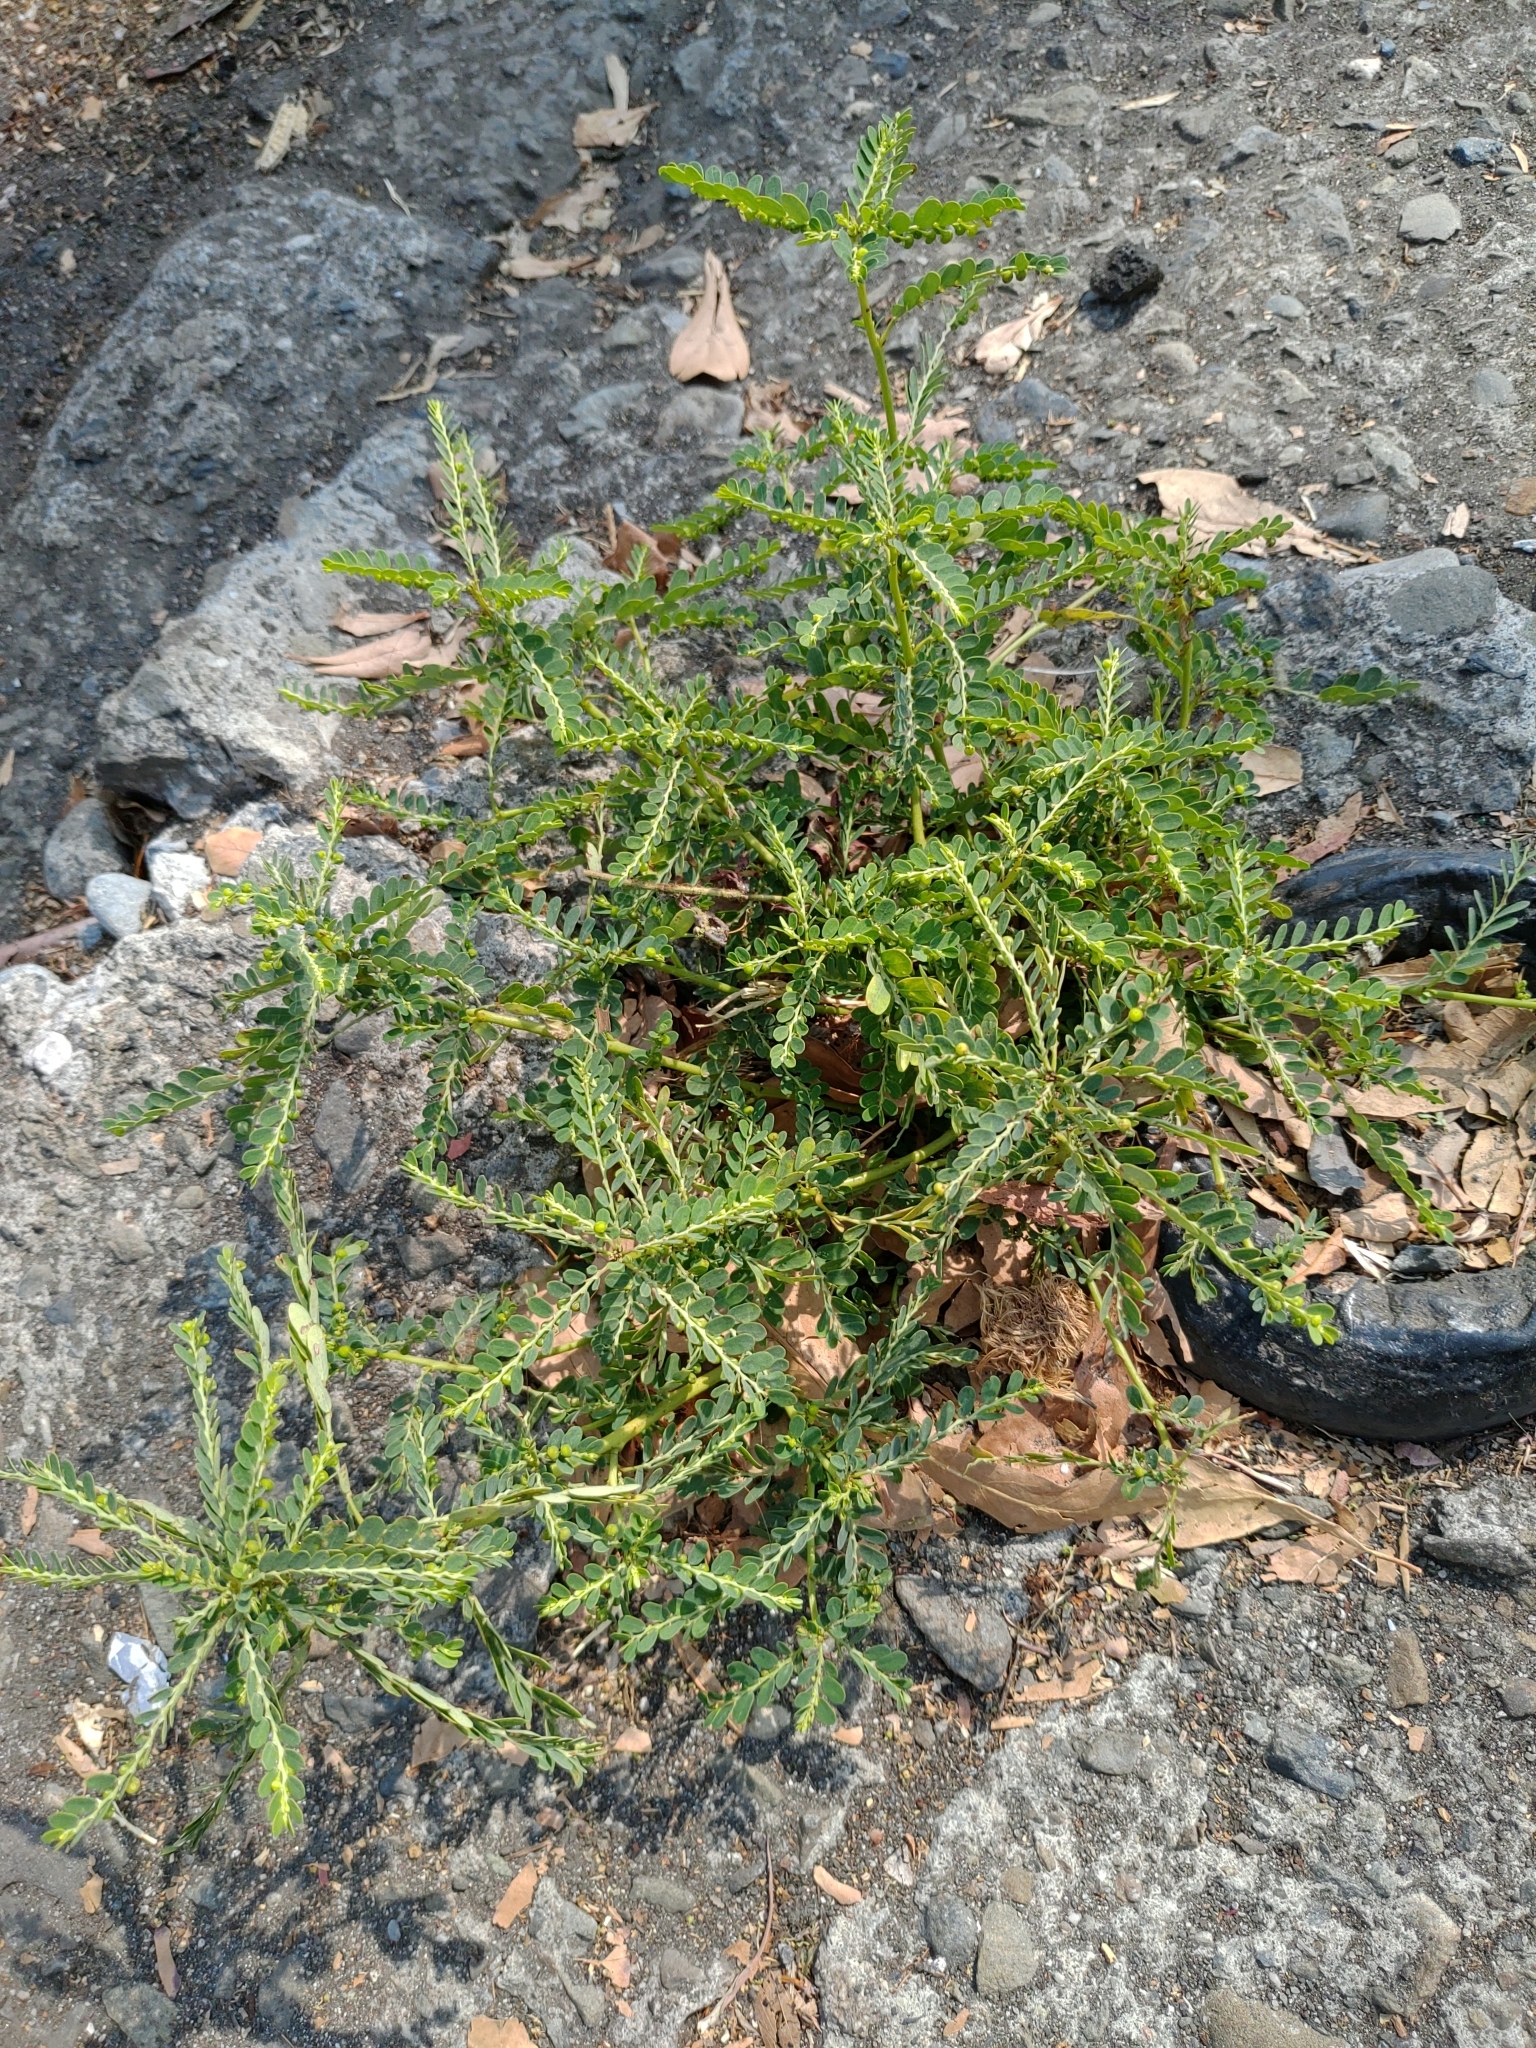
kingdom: Plantae
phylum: Tracheophyta
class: Magnoliopsida
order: Malpighiales
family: Phyllanthaceae
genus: Phyllanthus
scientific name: Phyllanthus amarus
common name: Carry me seed
